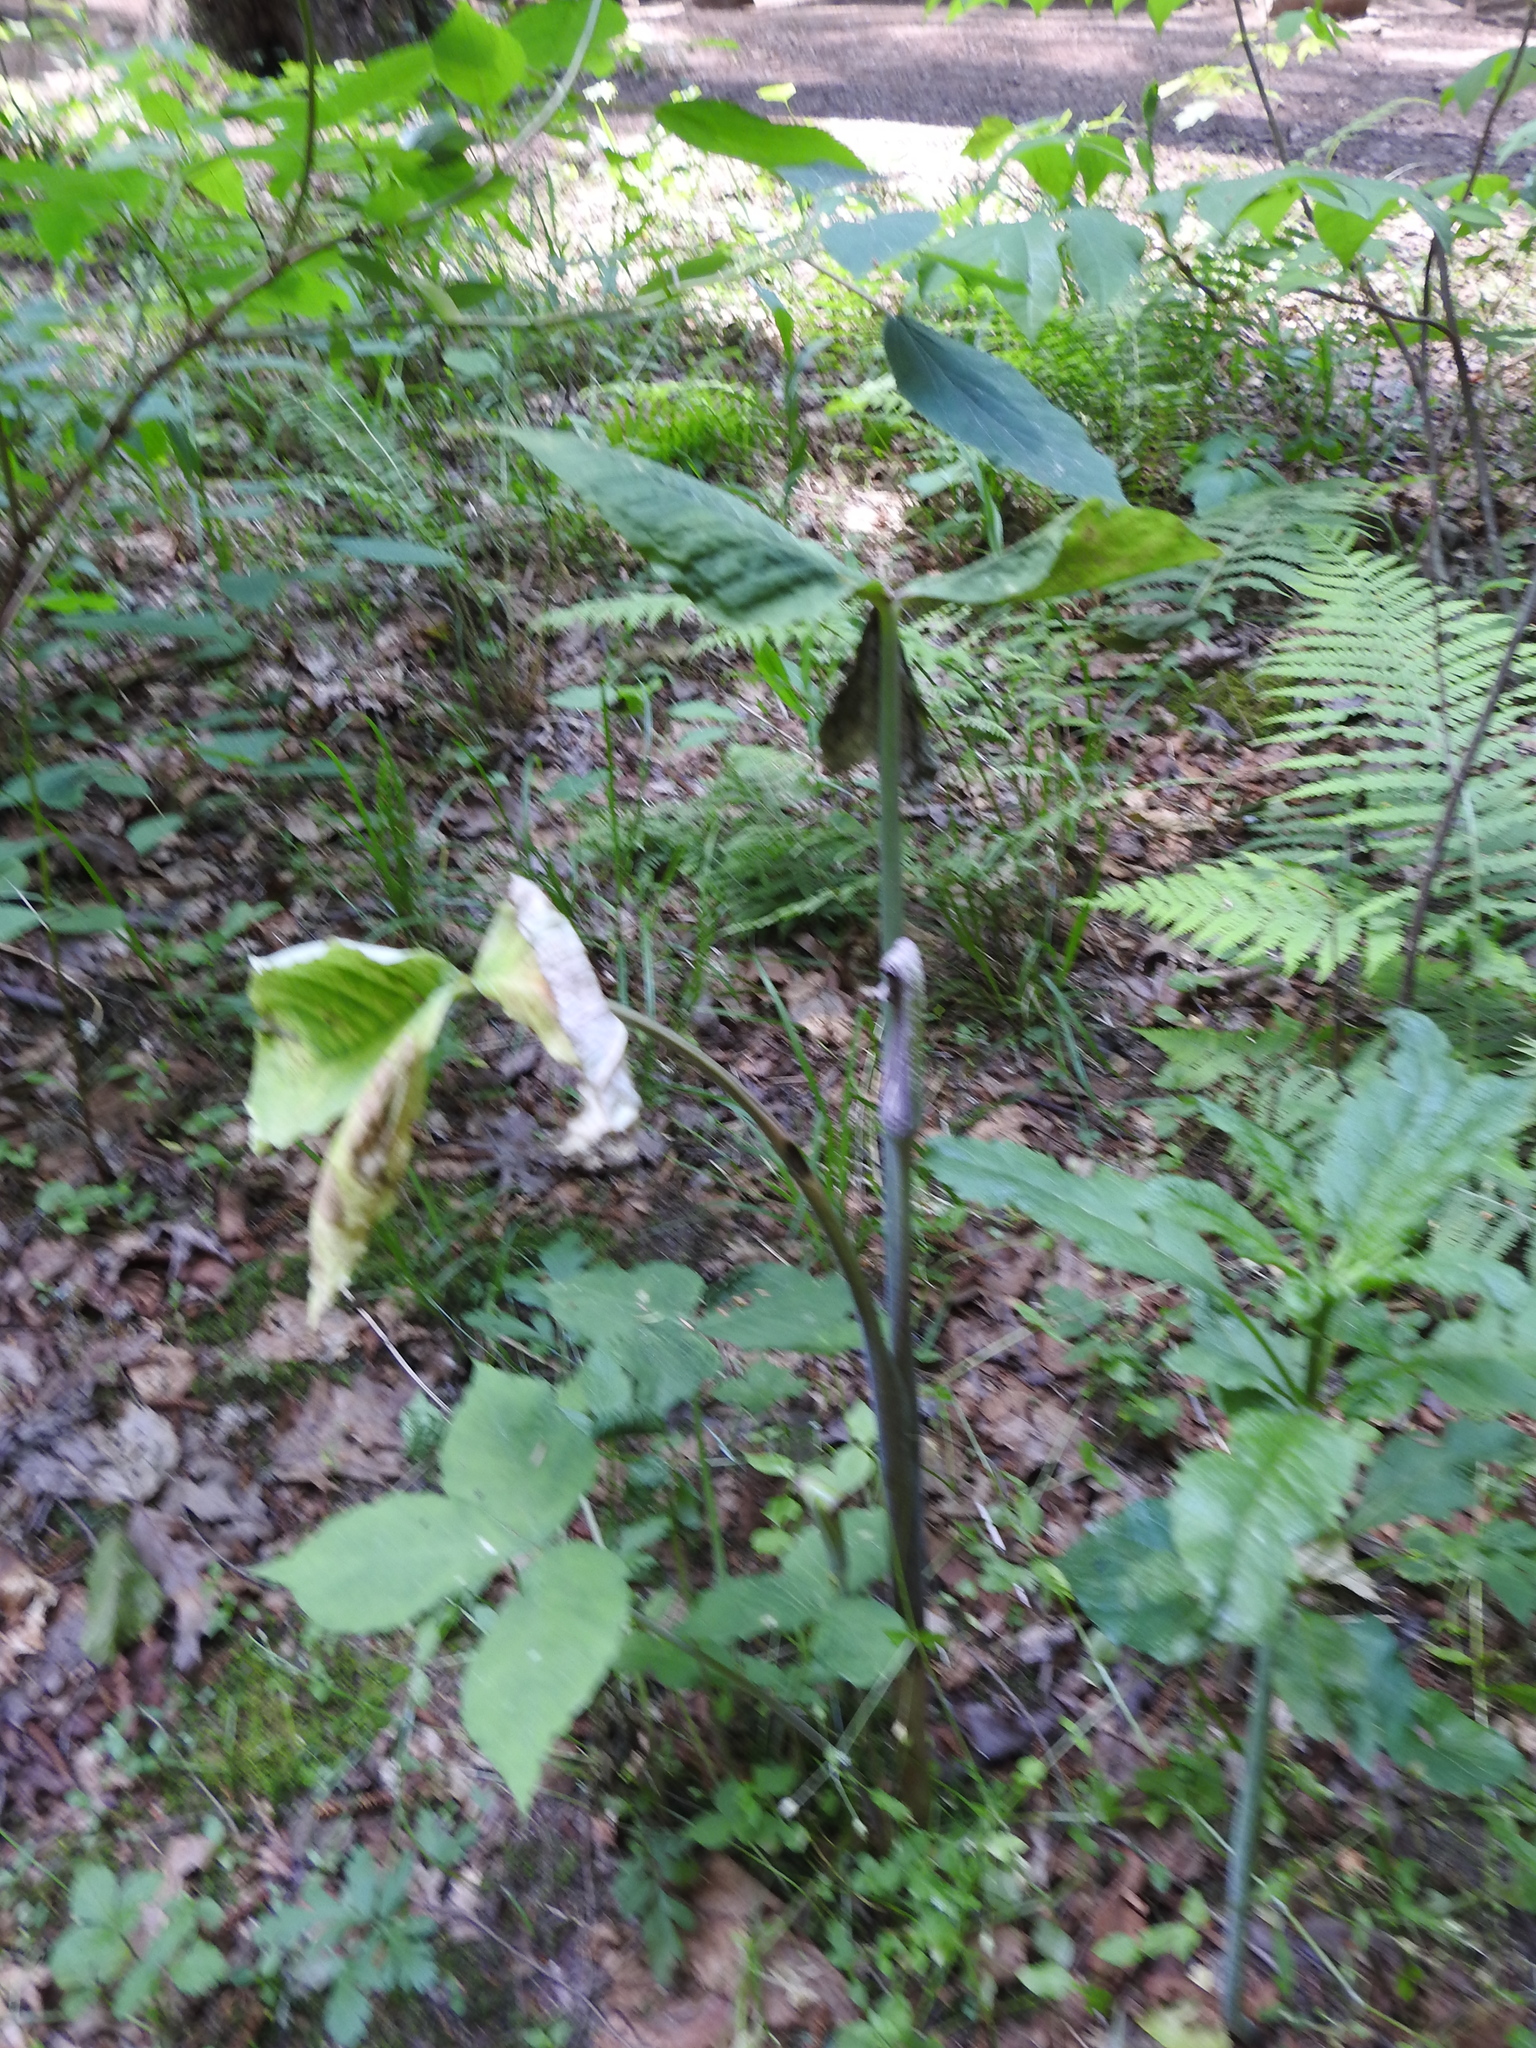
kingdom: Plantae
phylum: Tracheophyta
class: Liliopsida
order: Alismatales
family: Araceae
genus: Arisaema
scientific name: Arisaema triphyllum
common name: Jack-in-the-pulpit
